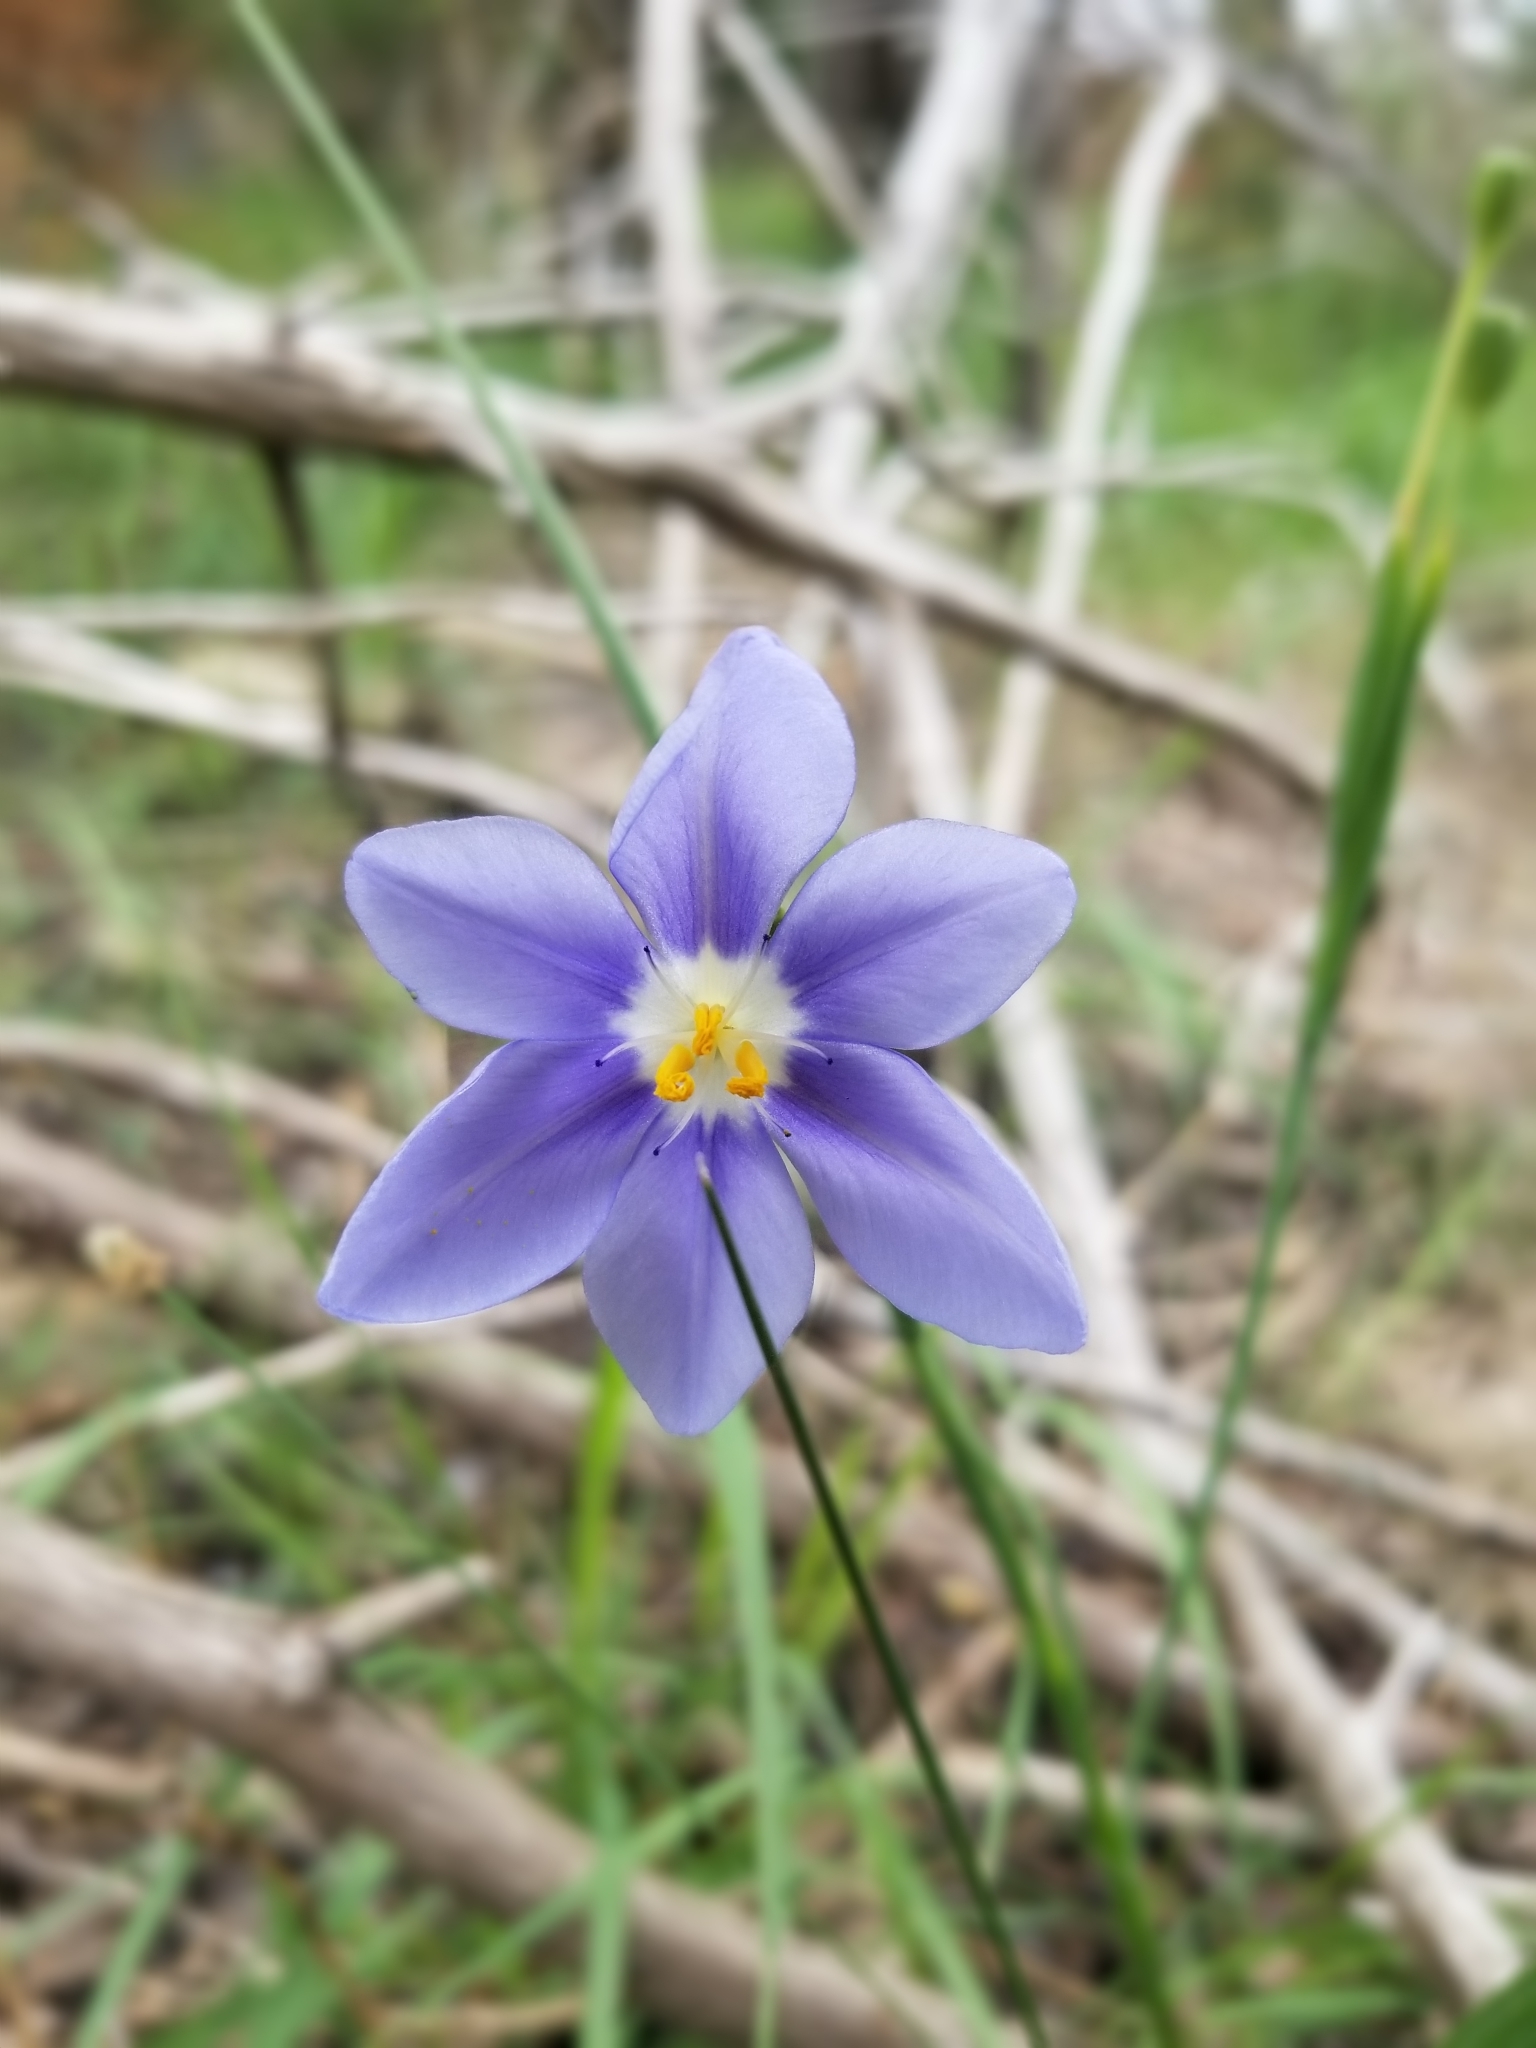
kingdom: Plantae
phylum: Tracheophyta
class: Liliopsida
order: Asparagales
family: Iridaceae
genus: Nemastylis
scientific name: Nemastylis geminiflora
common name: Prairie celestial
